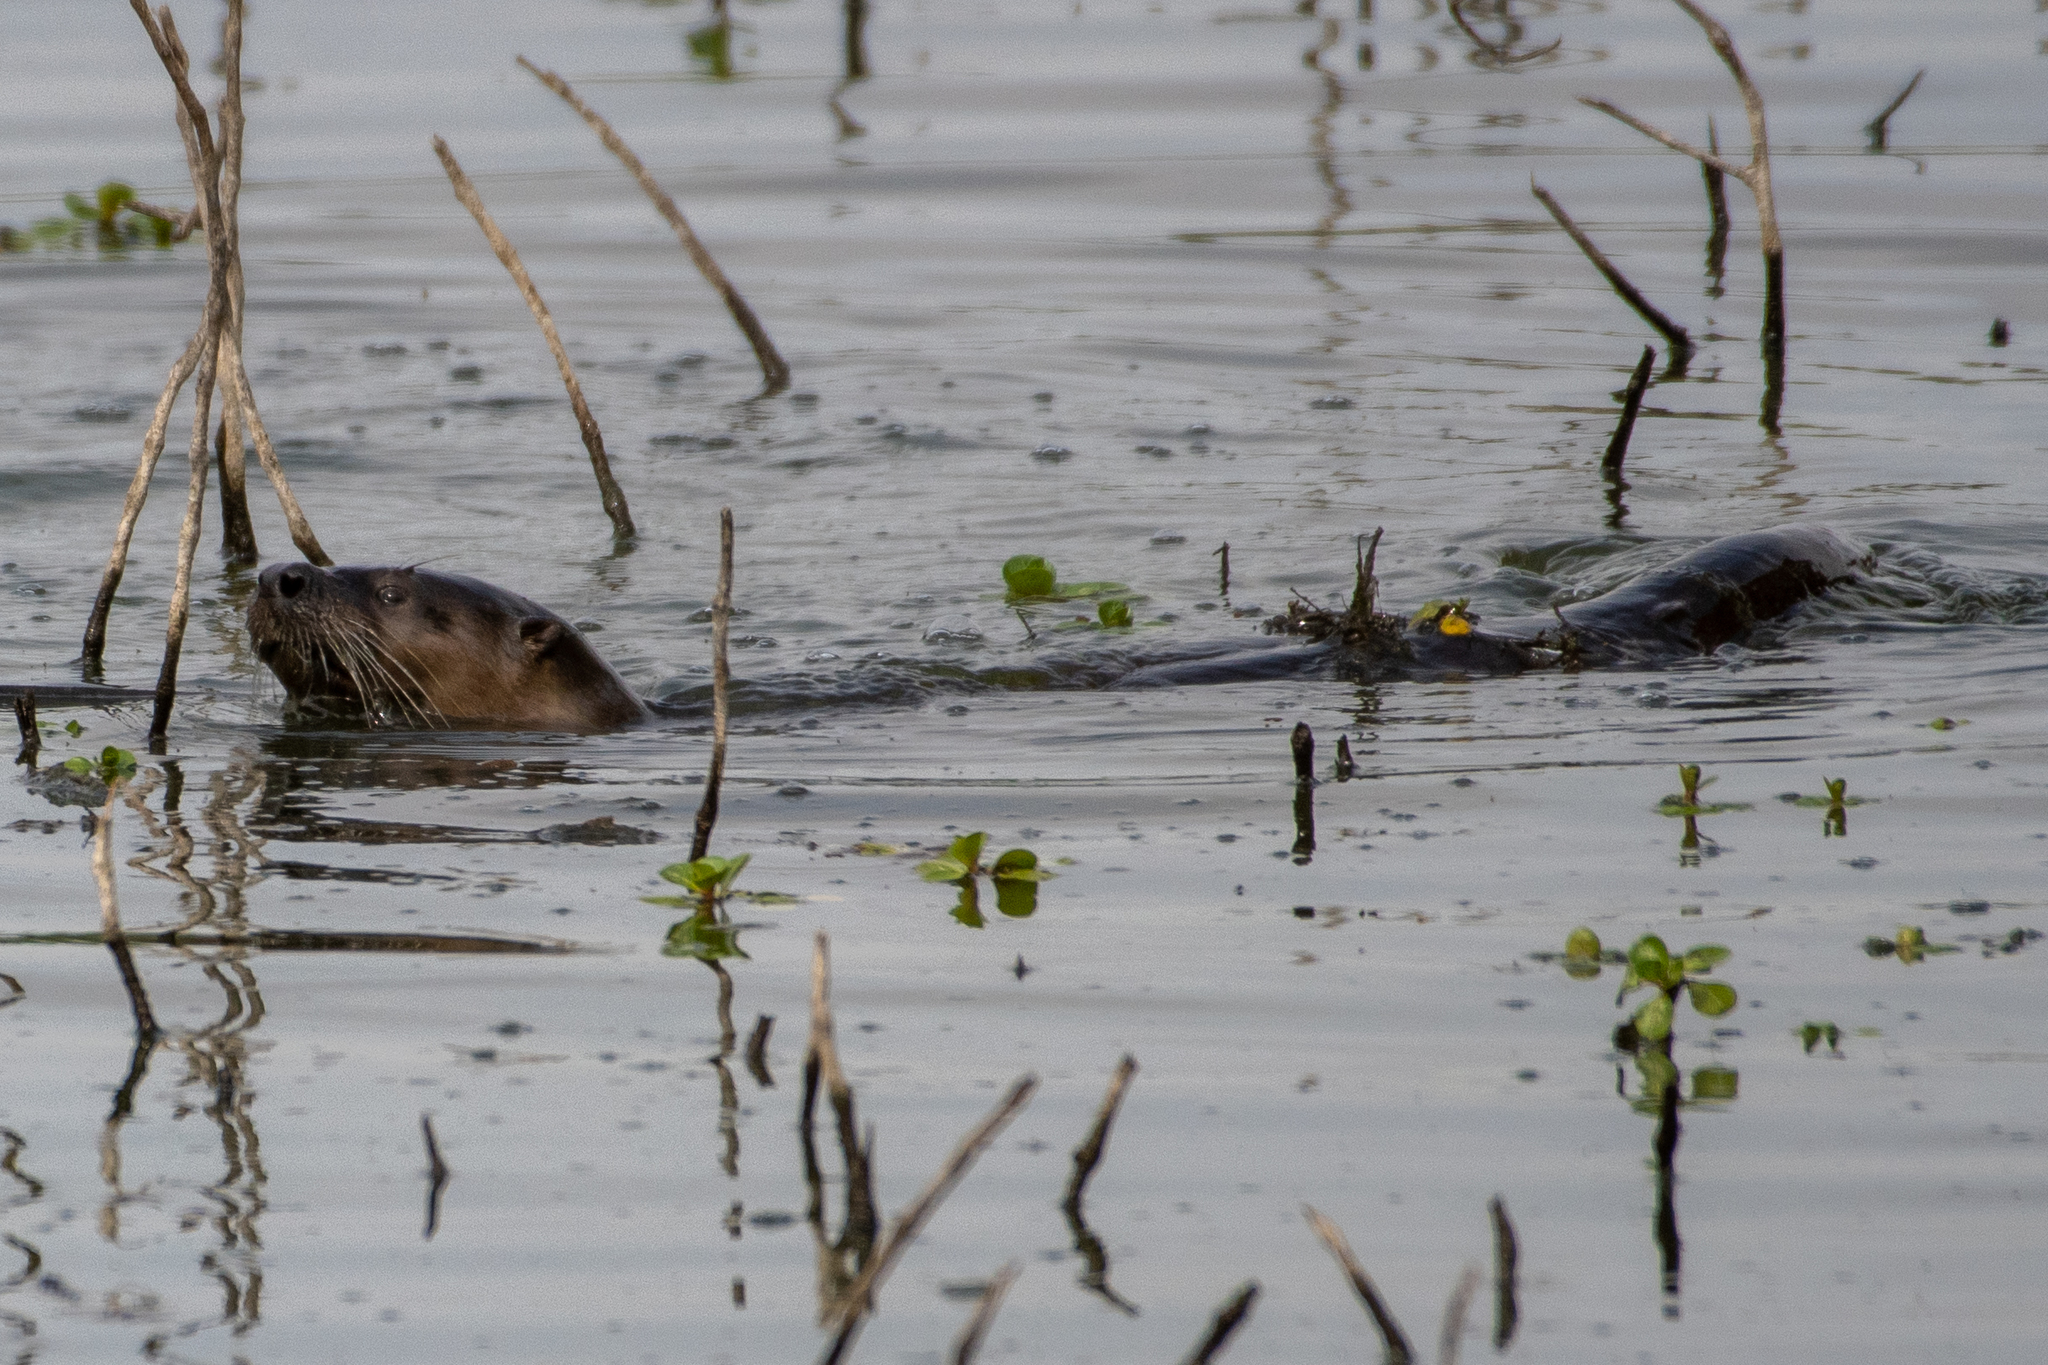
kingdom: Animalia
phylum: Chordata
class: Mammalia
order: Carnivora
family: Mustelidae
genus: Lontra
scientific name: Lontra canadensis
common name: North american river otter
